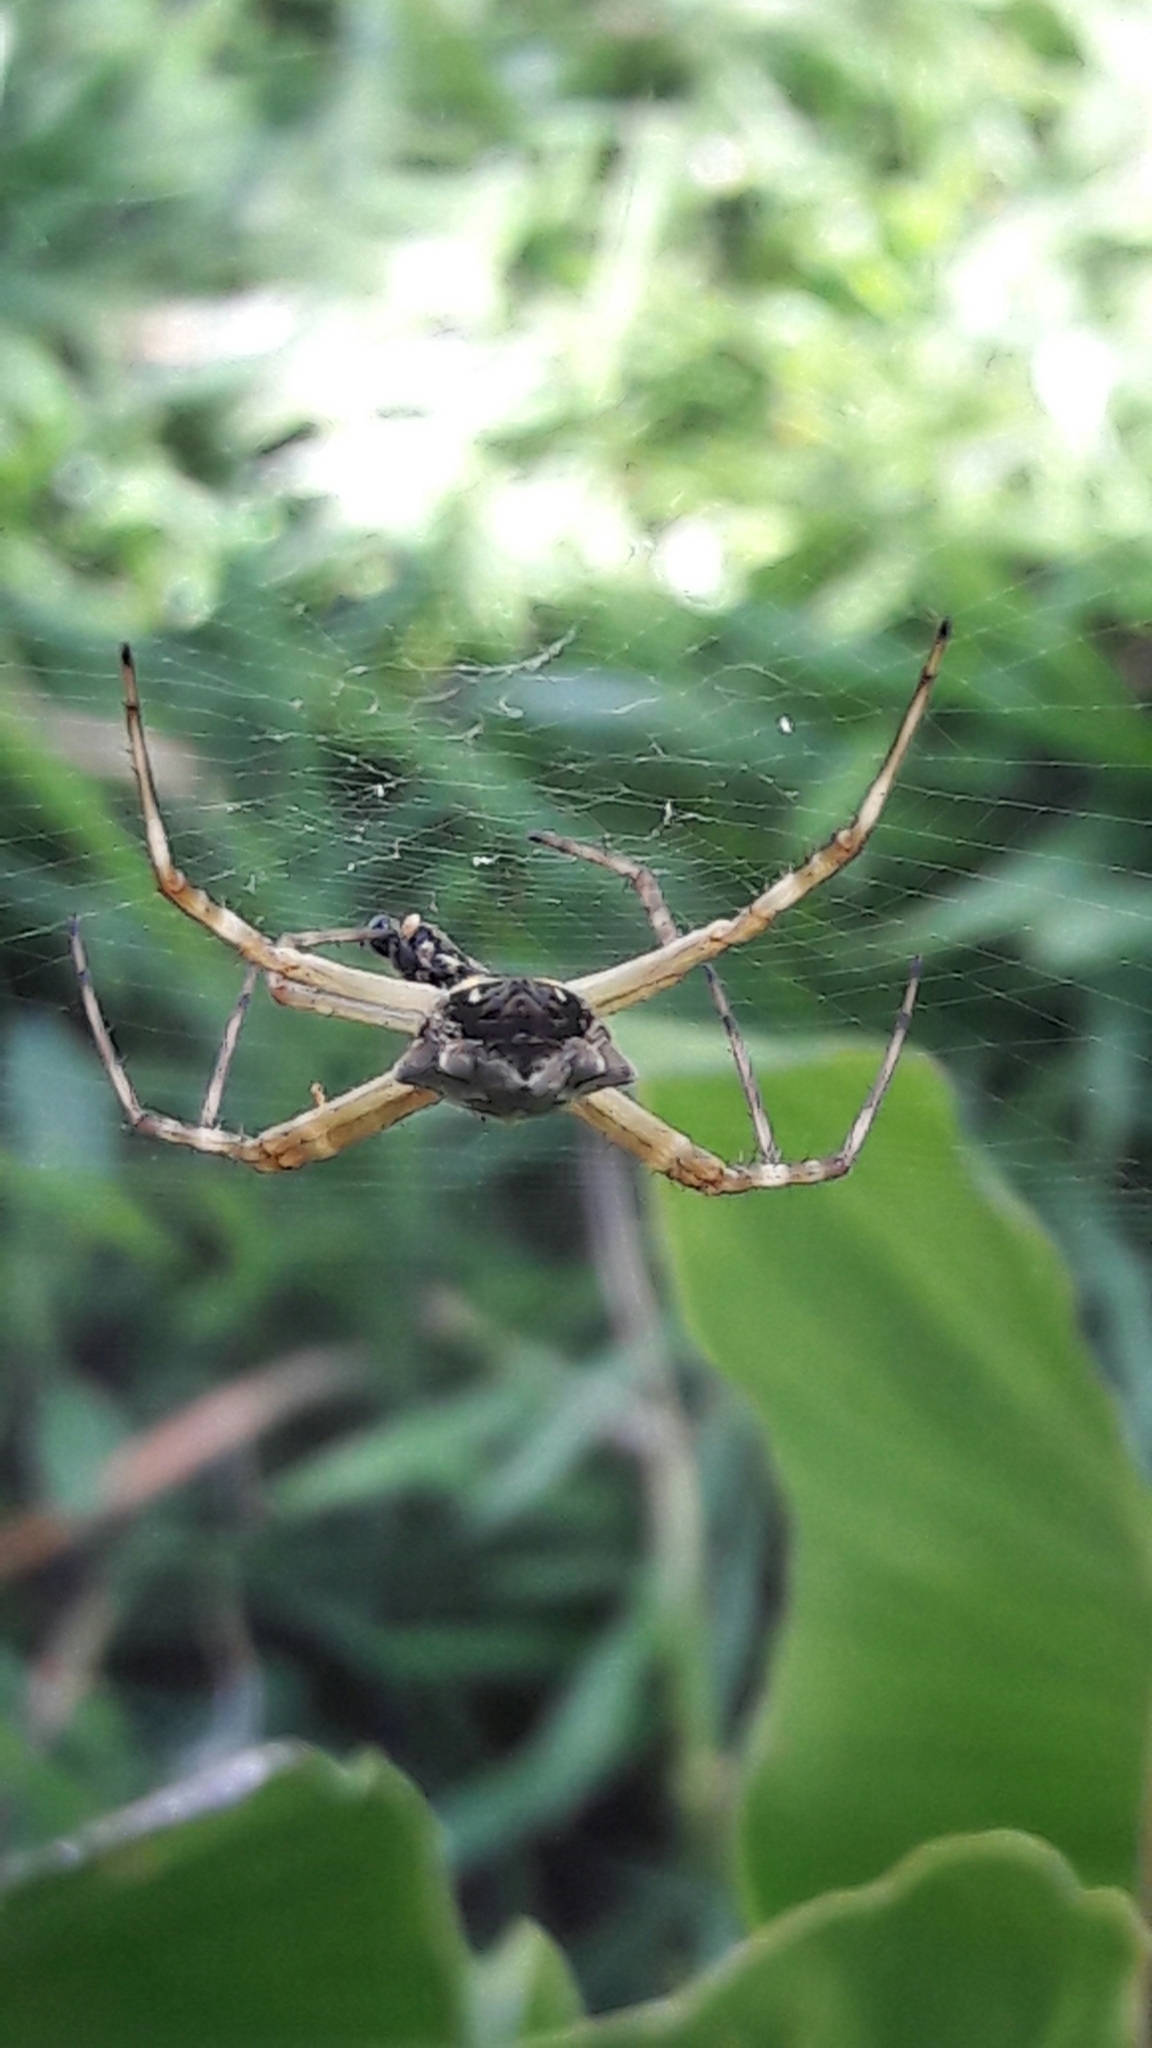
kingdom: Animalia
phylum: Arthropoda
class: Arachnida
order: Araneae
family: Araneidae
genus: Argiope
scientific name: Argiope argentata
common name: Orb weavers
